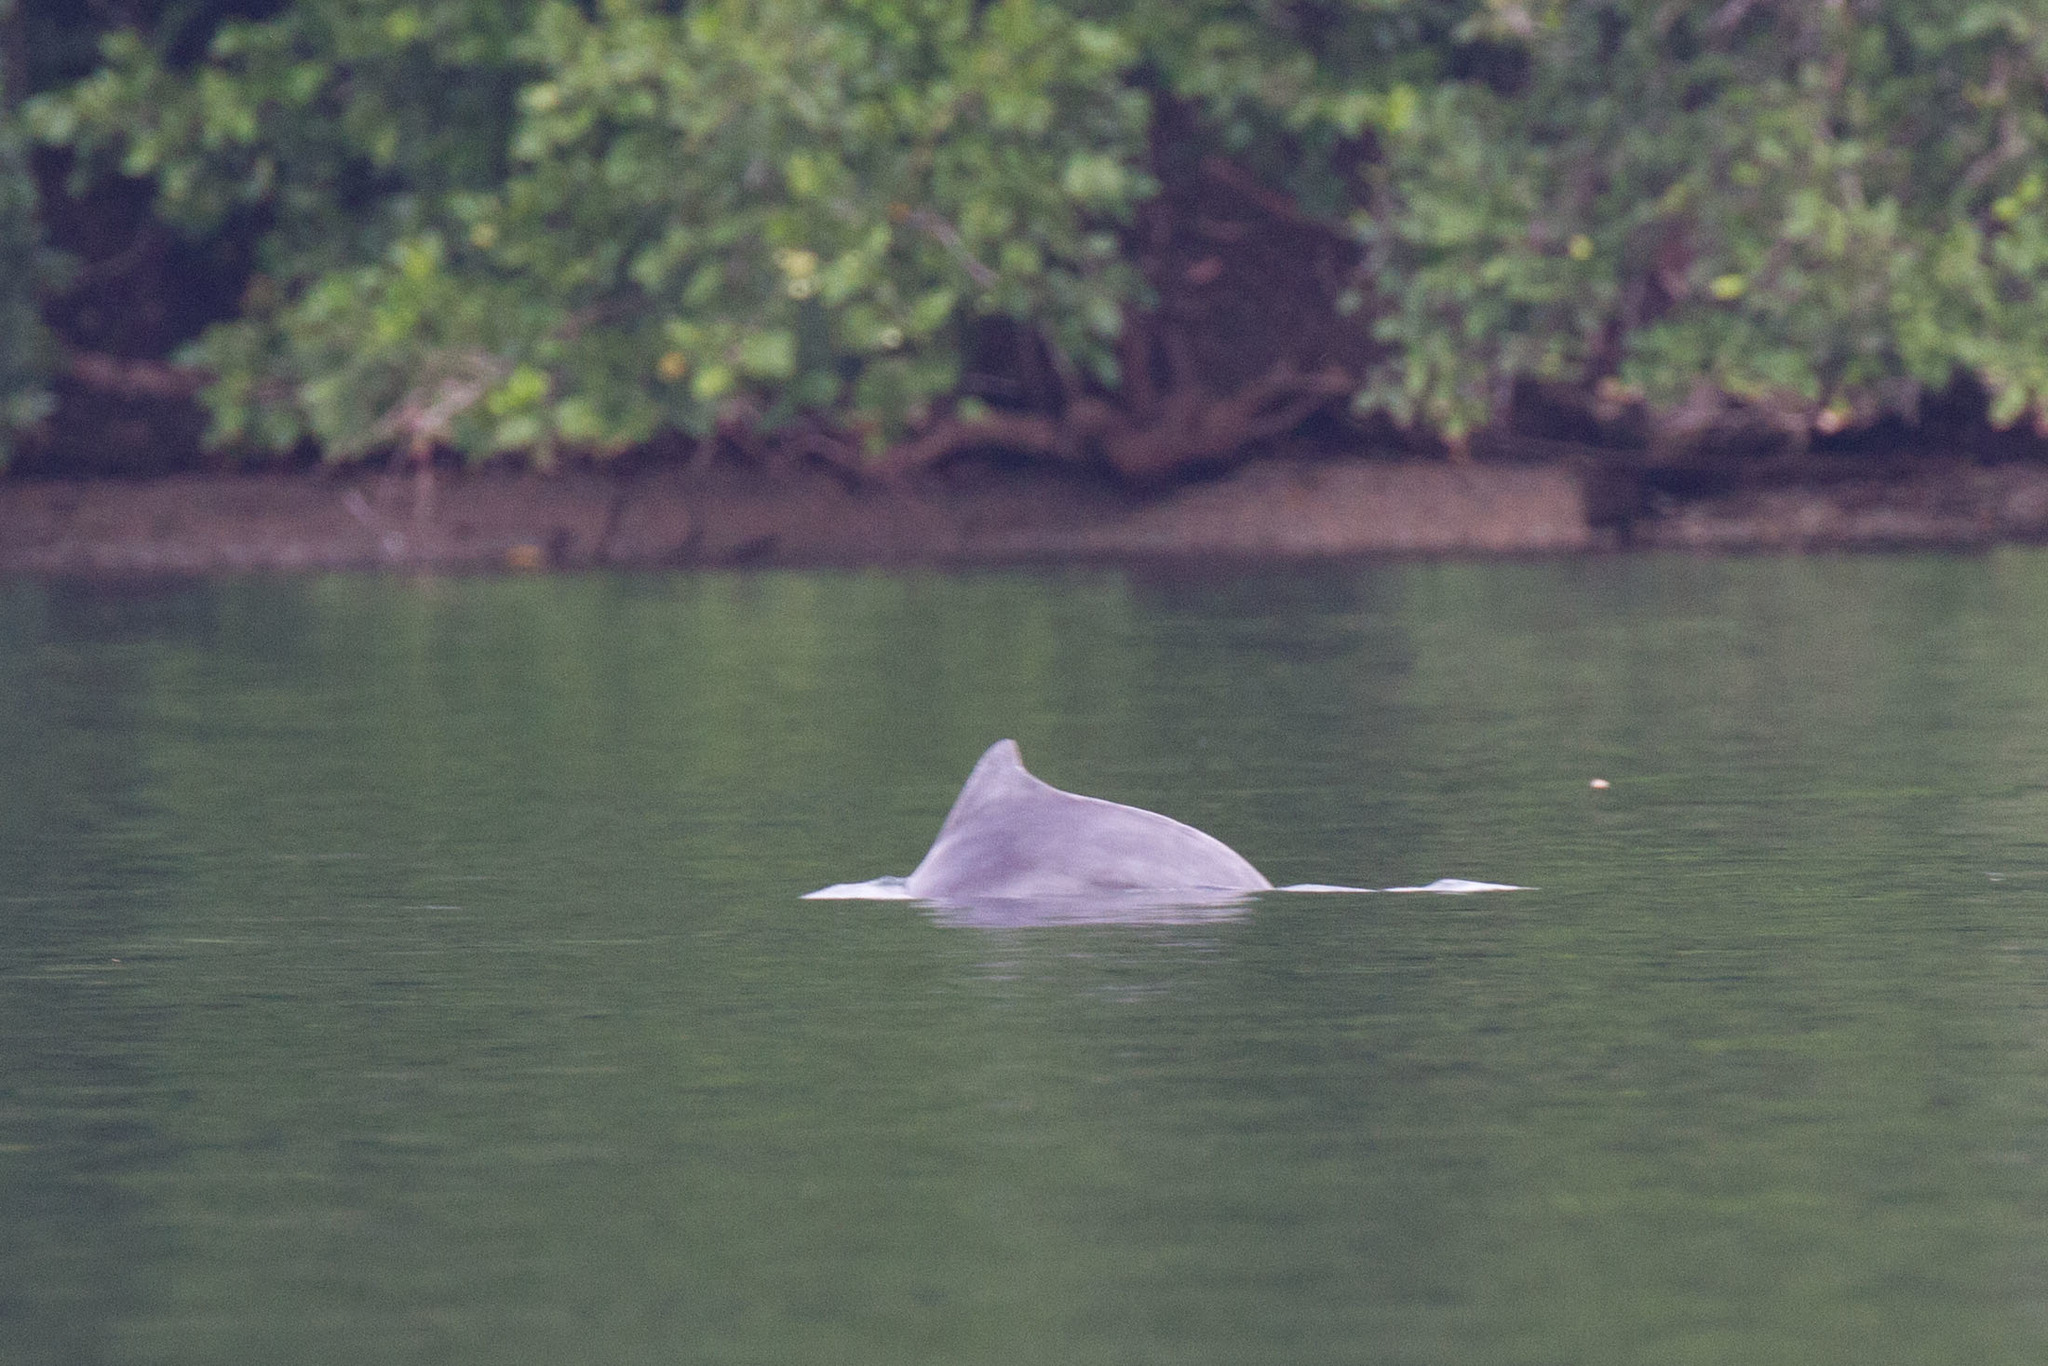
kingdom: Animalia
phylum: Chordata
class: Mammalia
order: Cetacea
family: Delphinidae
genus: Sousa
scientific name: Sousa sahulensis
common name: Australian humpback dolphin
